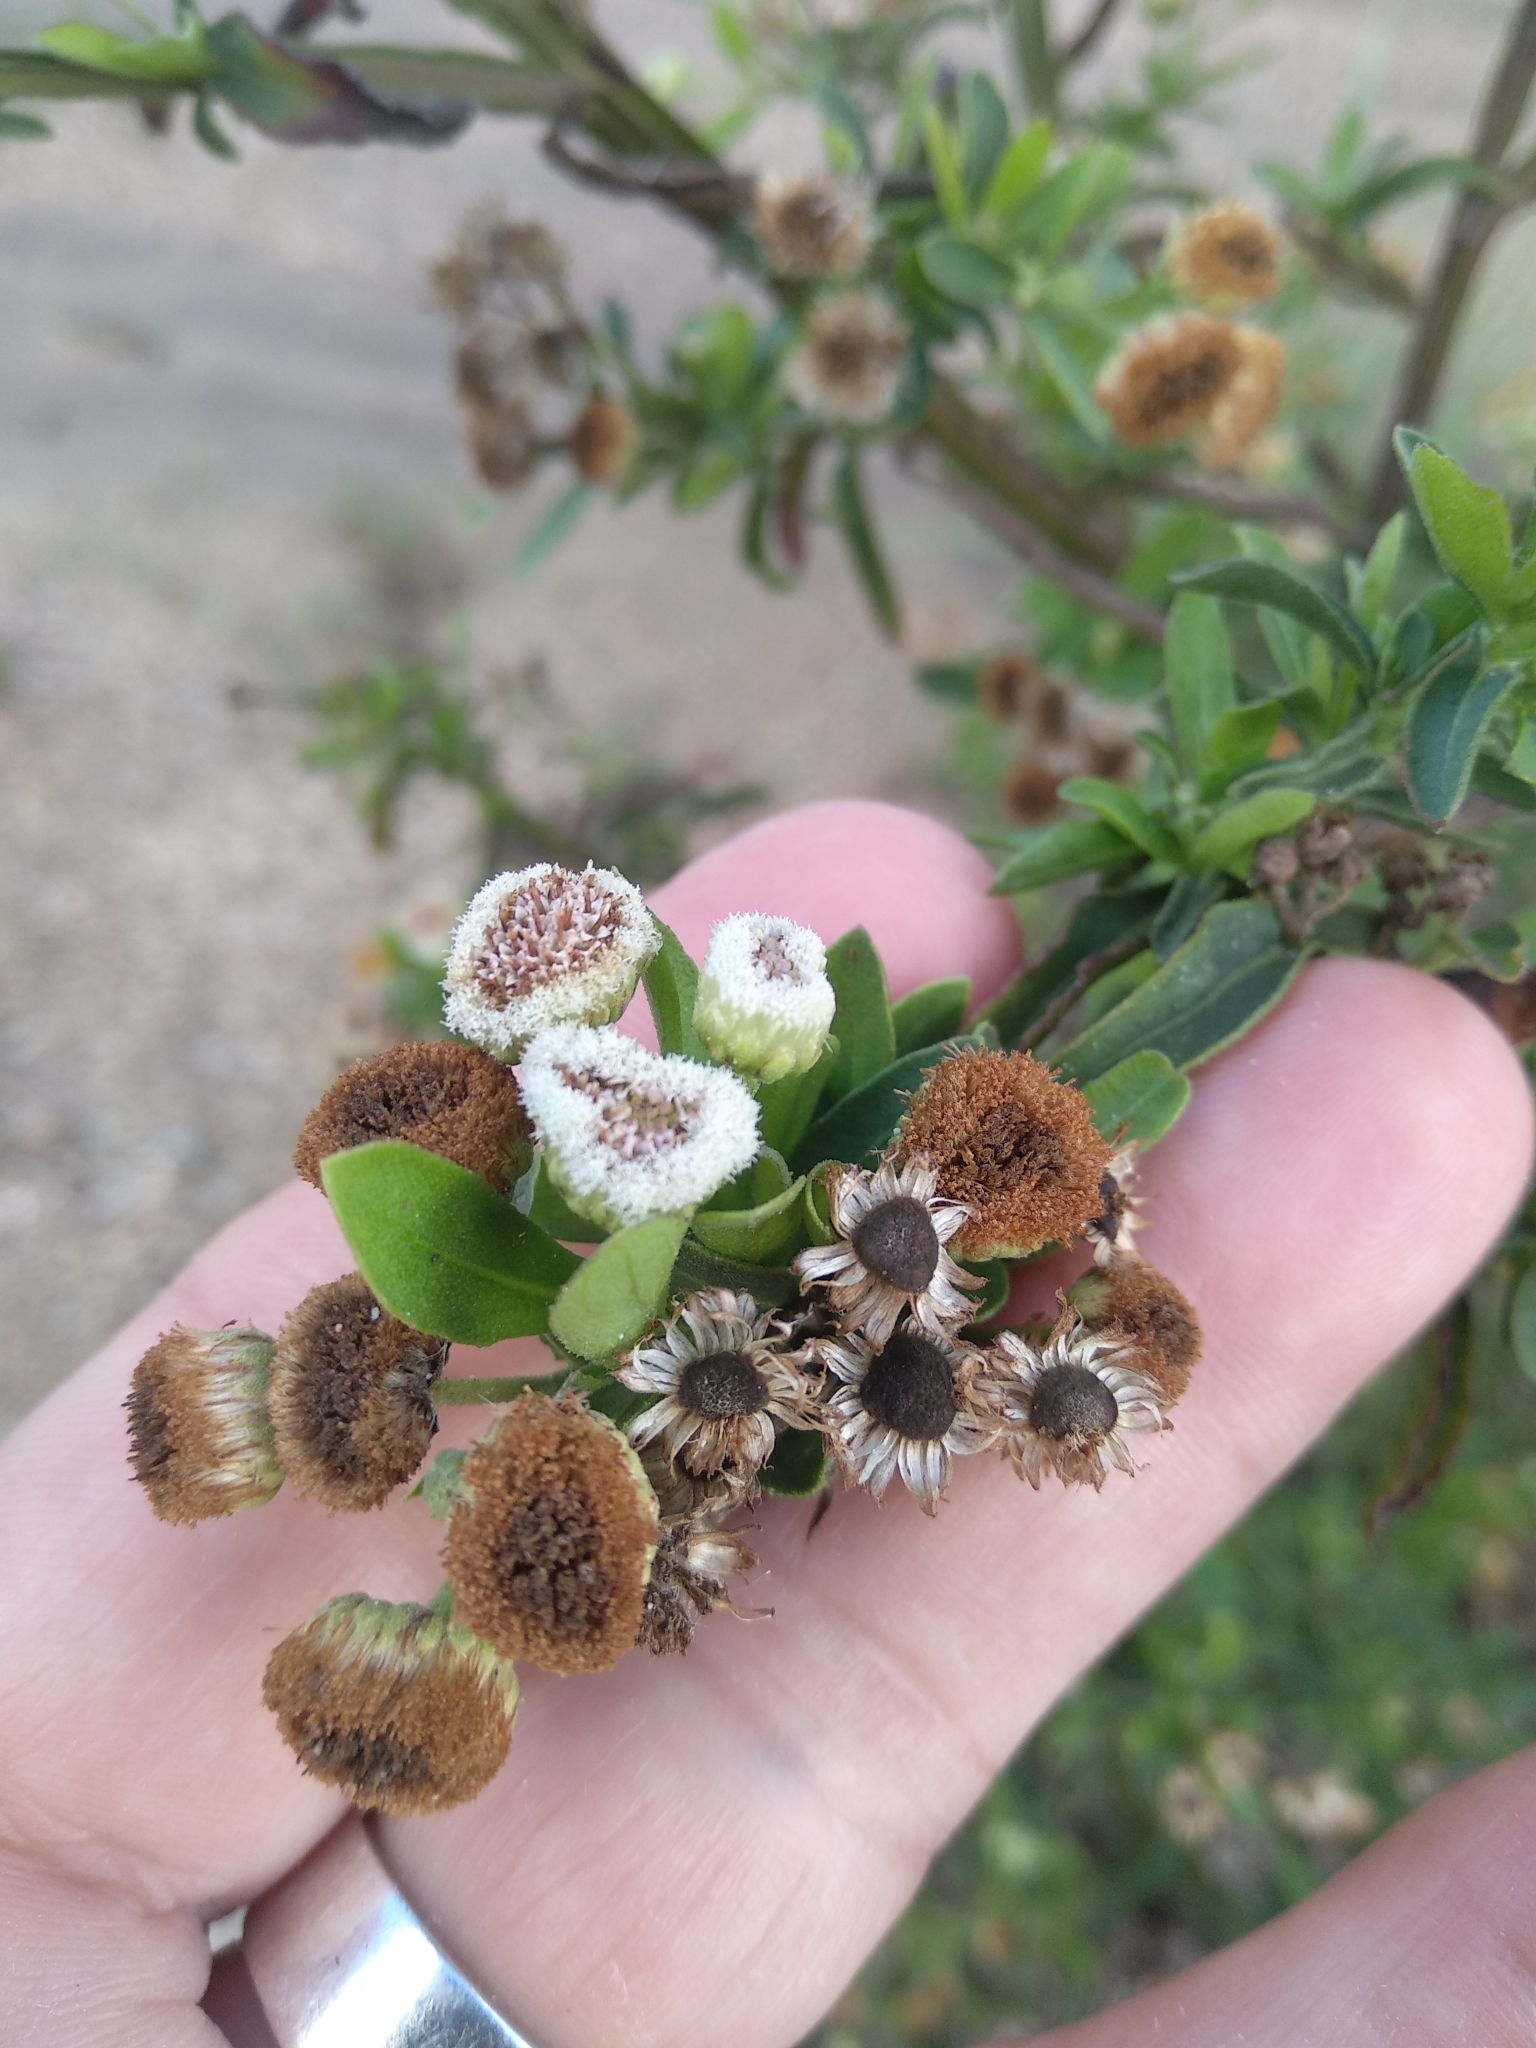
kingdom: Plantae
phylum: Tracheophyta
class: Magnoliopsida
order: Asterales
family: Asteraceae
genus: Pluchea
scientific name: Pluchea sagittalis
